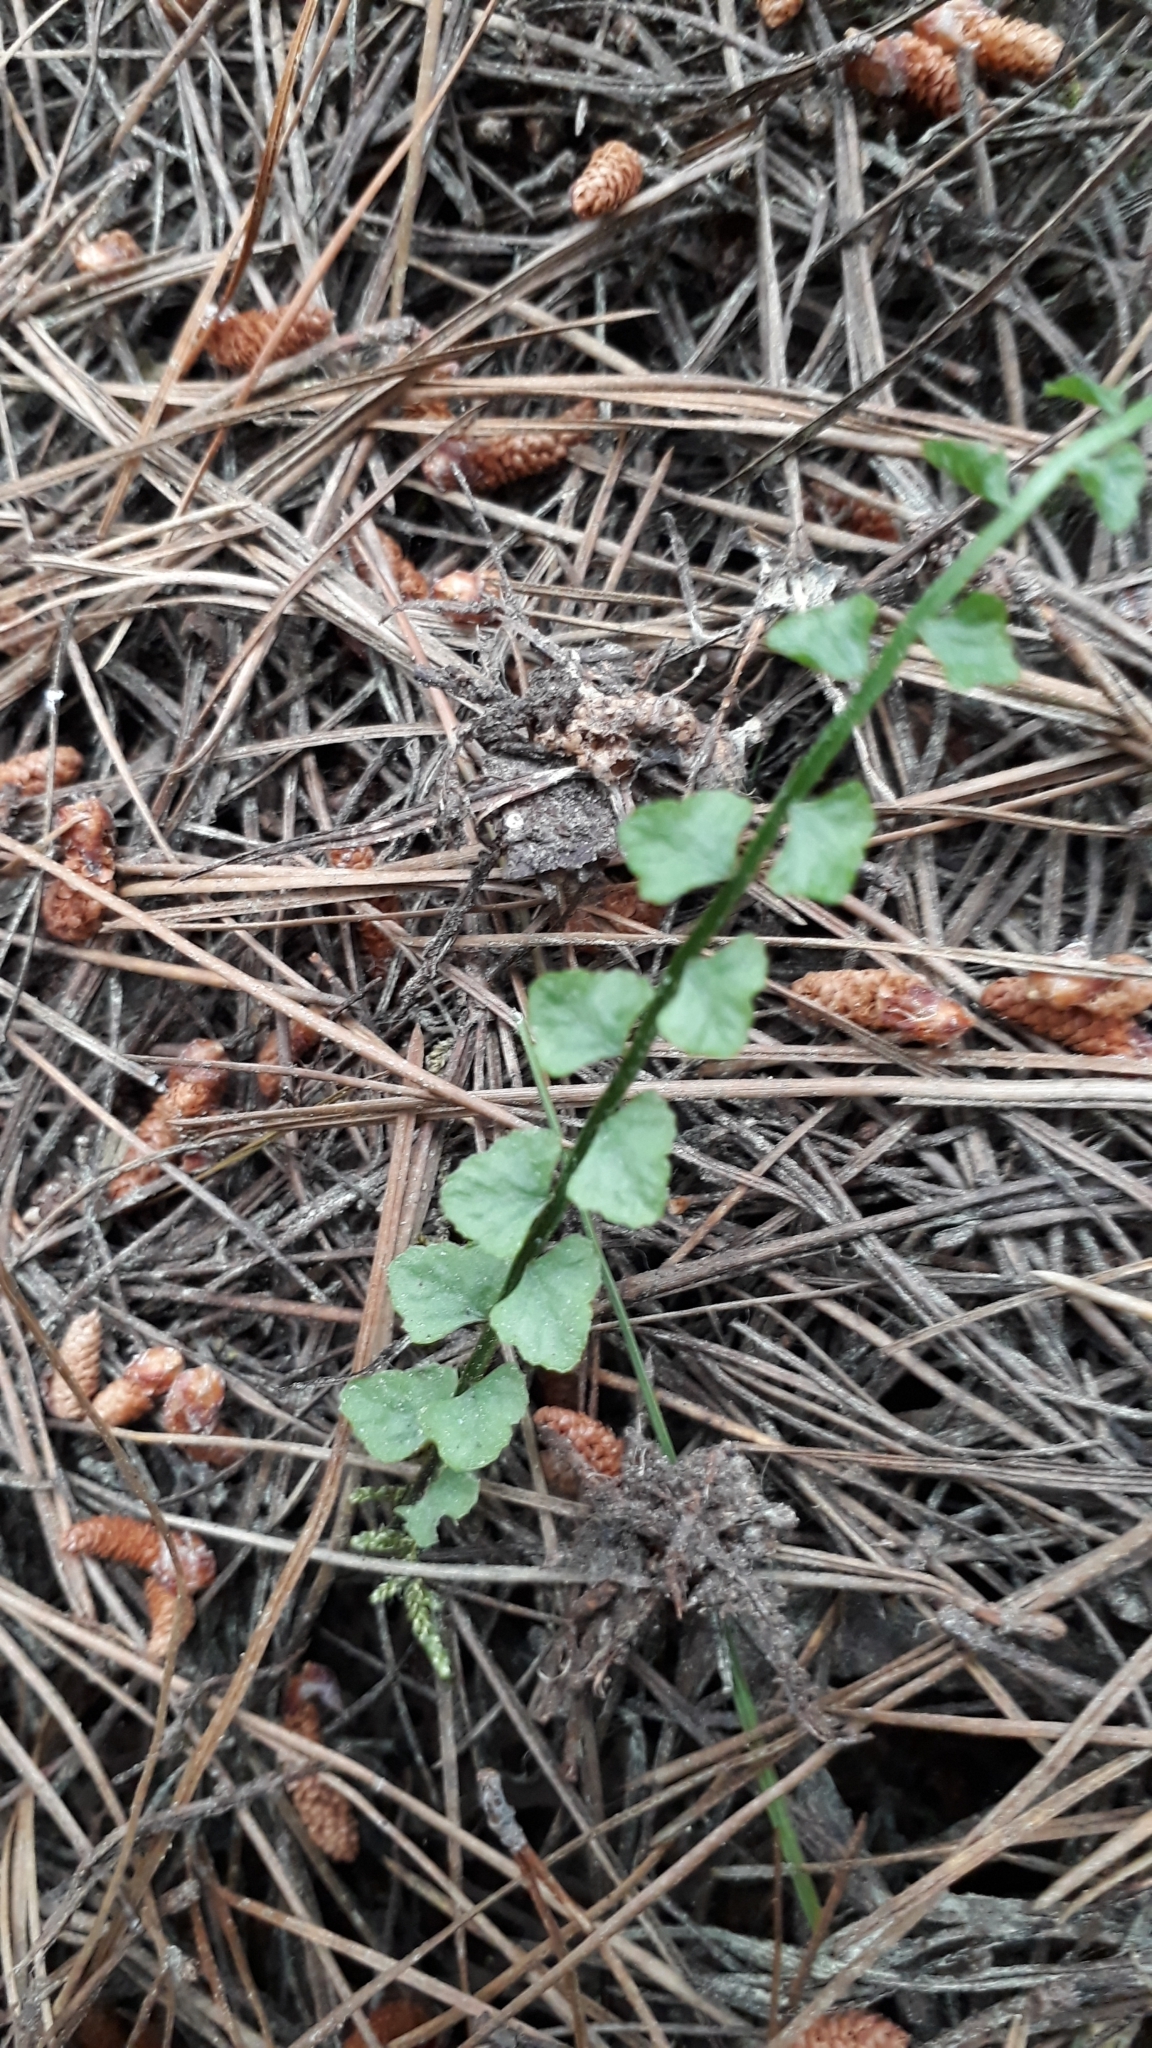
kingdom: Plantae
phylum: Tracheophyta
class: Polypodiopsida
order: Polypodiales
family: Aspleniaceae
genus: Asplenium
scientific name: Asplenium flabellifolium
